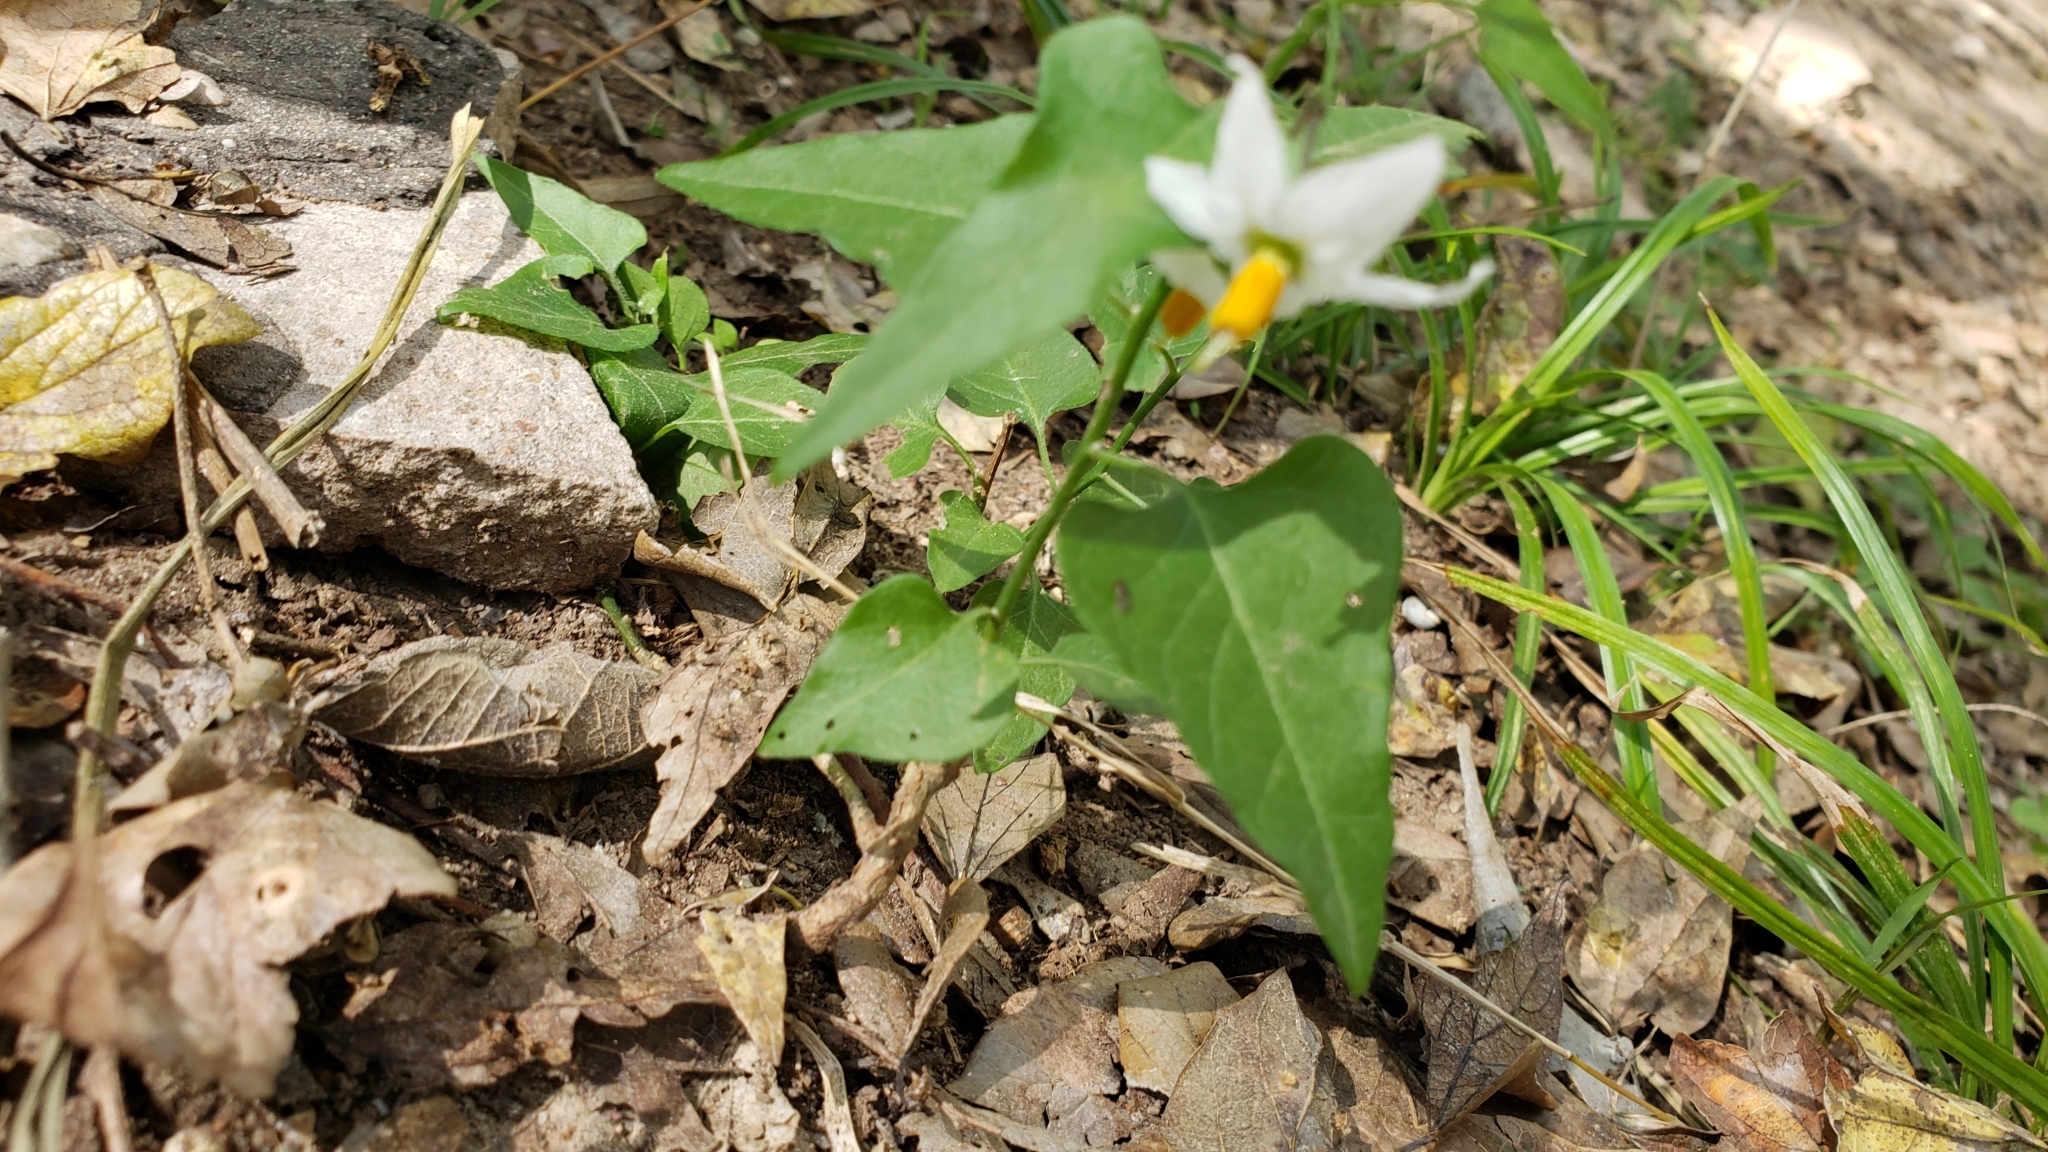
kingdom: Plantae
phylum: Tracheophyta
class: Magnoliopsida
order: Solanales
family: Solanaceae
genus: Solanum
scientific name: Solanum triquetrum
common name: Texas nightshade
